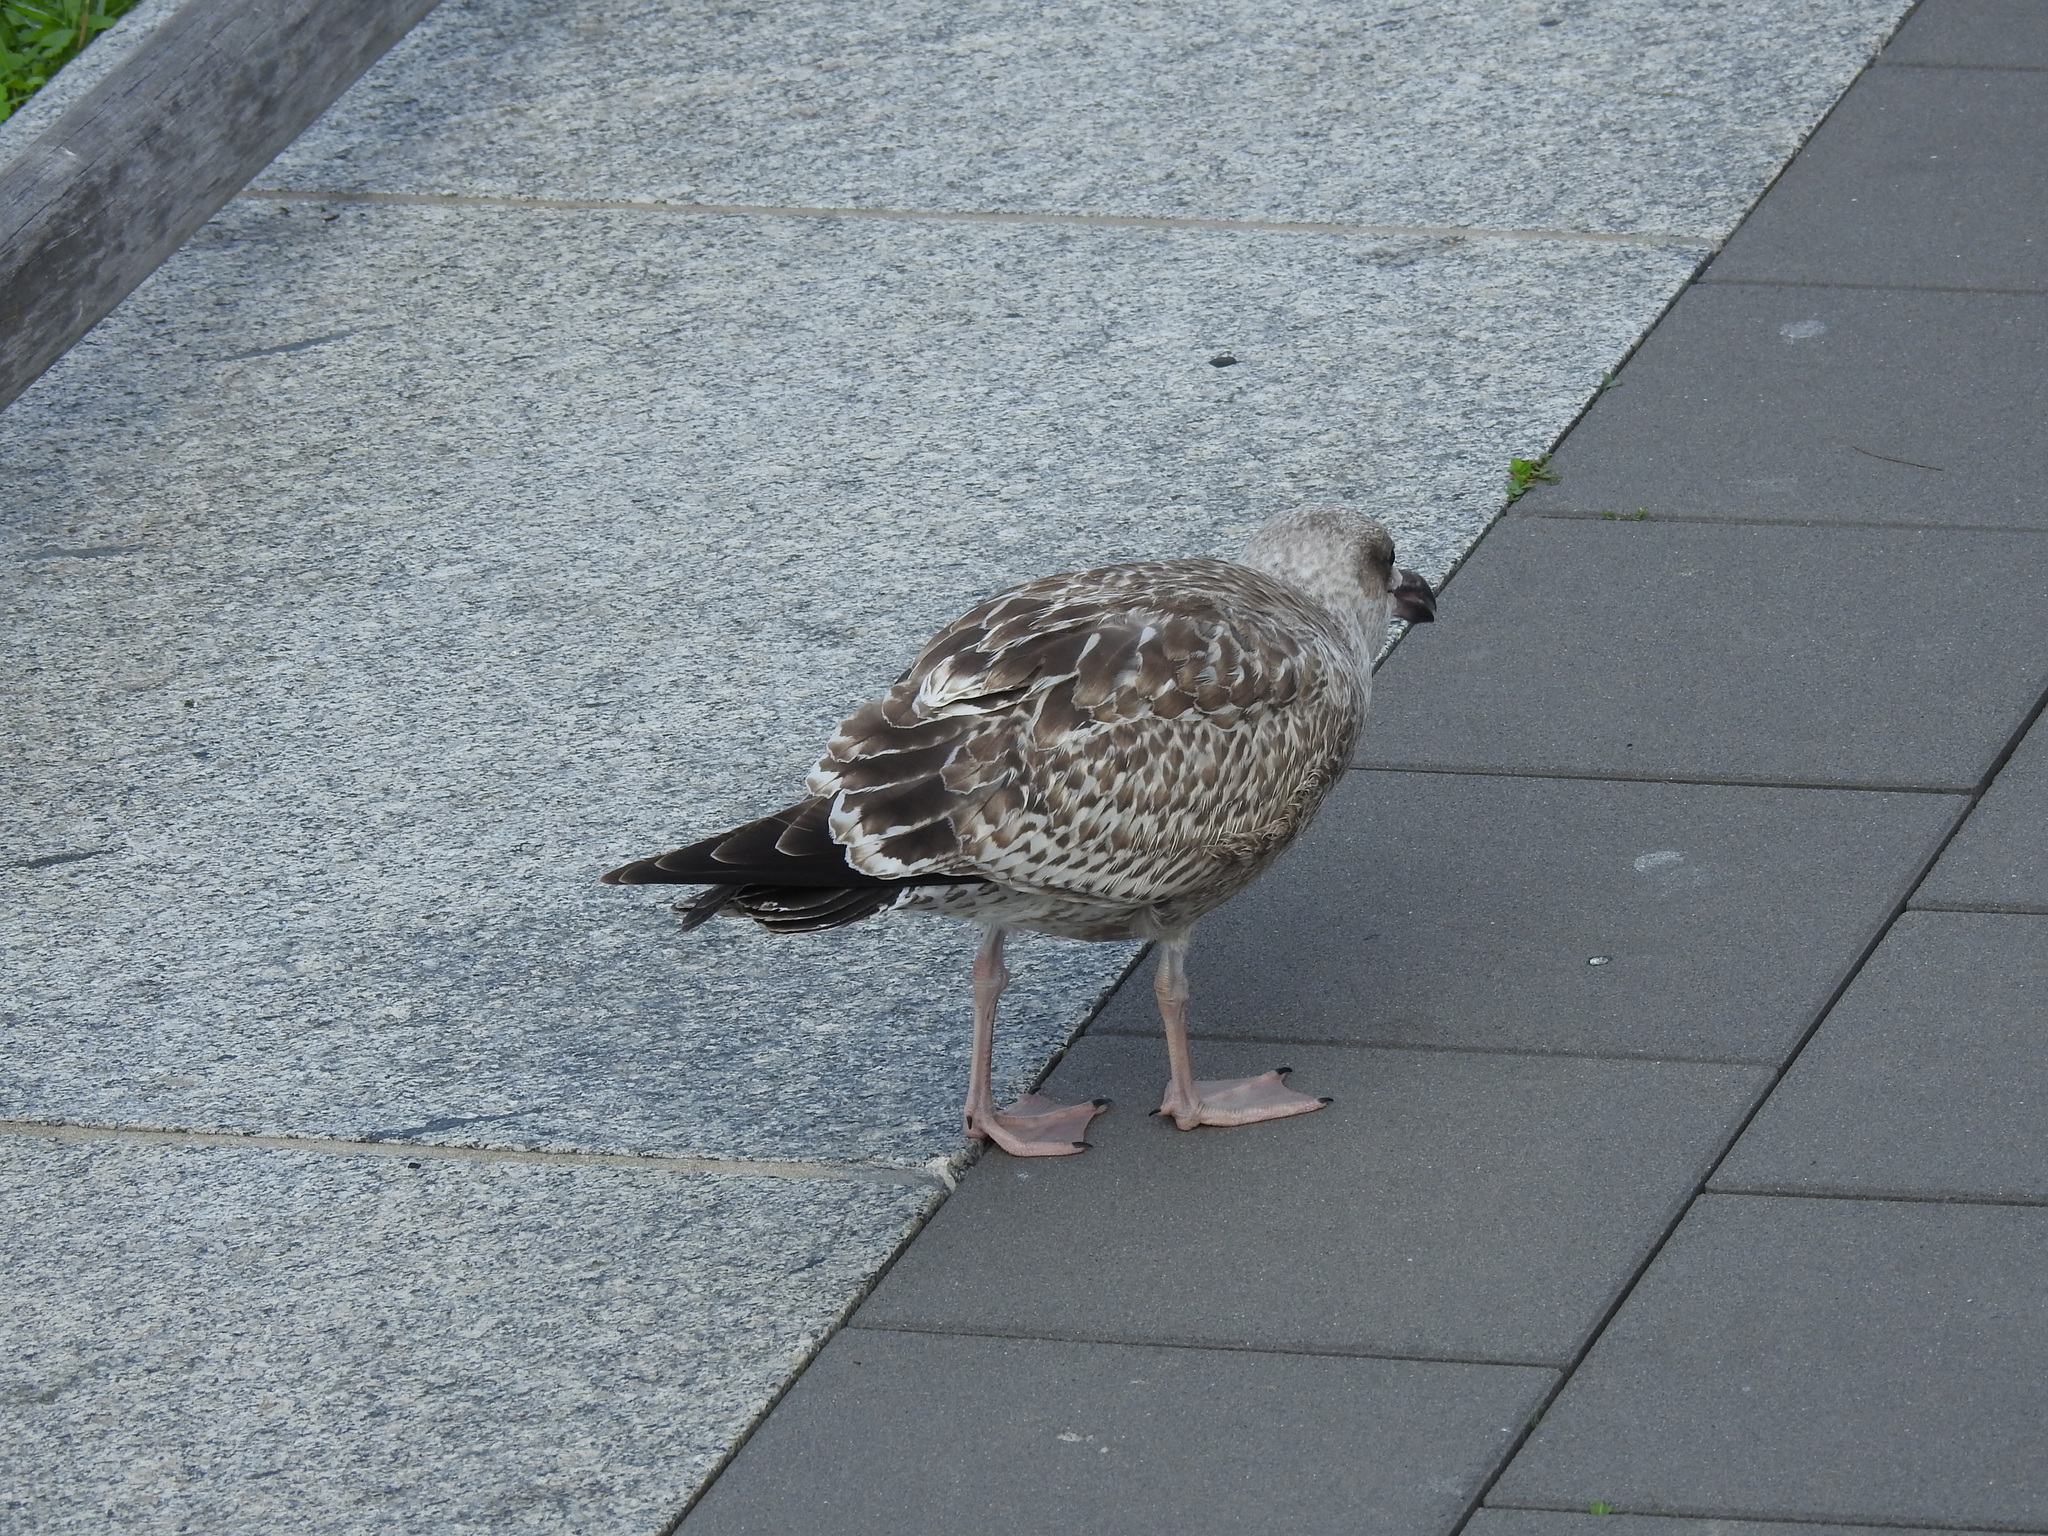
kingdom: Animalia
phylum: Chordata
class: Aves
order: Charadriiformes
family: Laridae
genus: Larus
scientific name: Larus argentatus
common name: Herring gull
